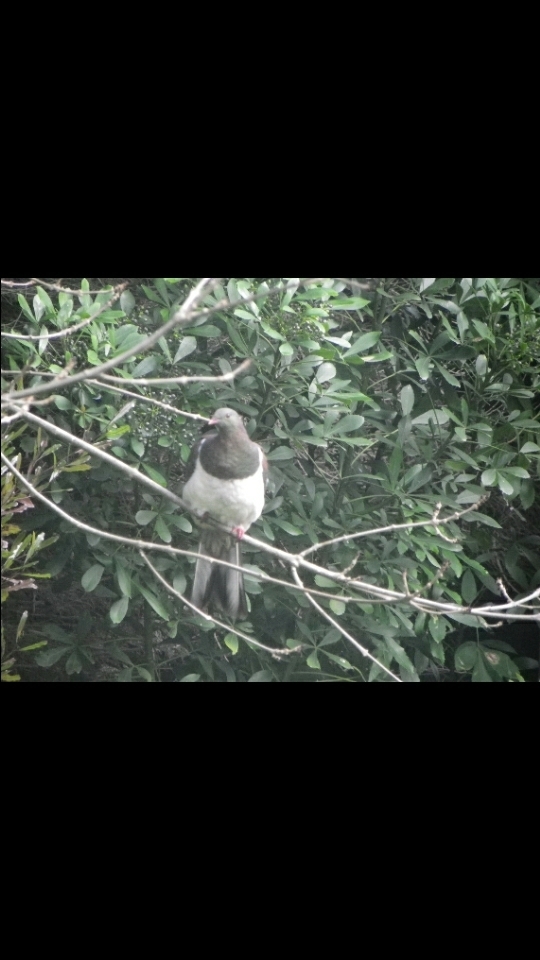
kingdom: Animalia
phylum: Chordata
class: Aves
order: Columbiformes
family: Columbidae
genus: Hemiphaga
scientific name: Hemiphaga novaeseelandiae
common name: New zealand pigeon
